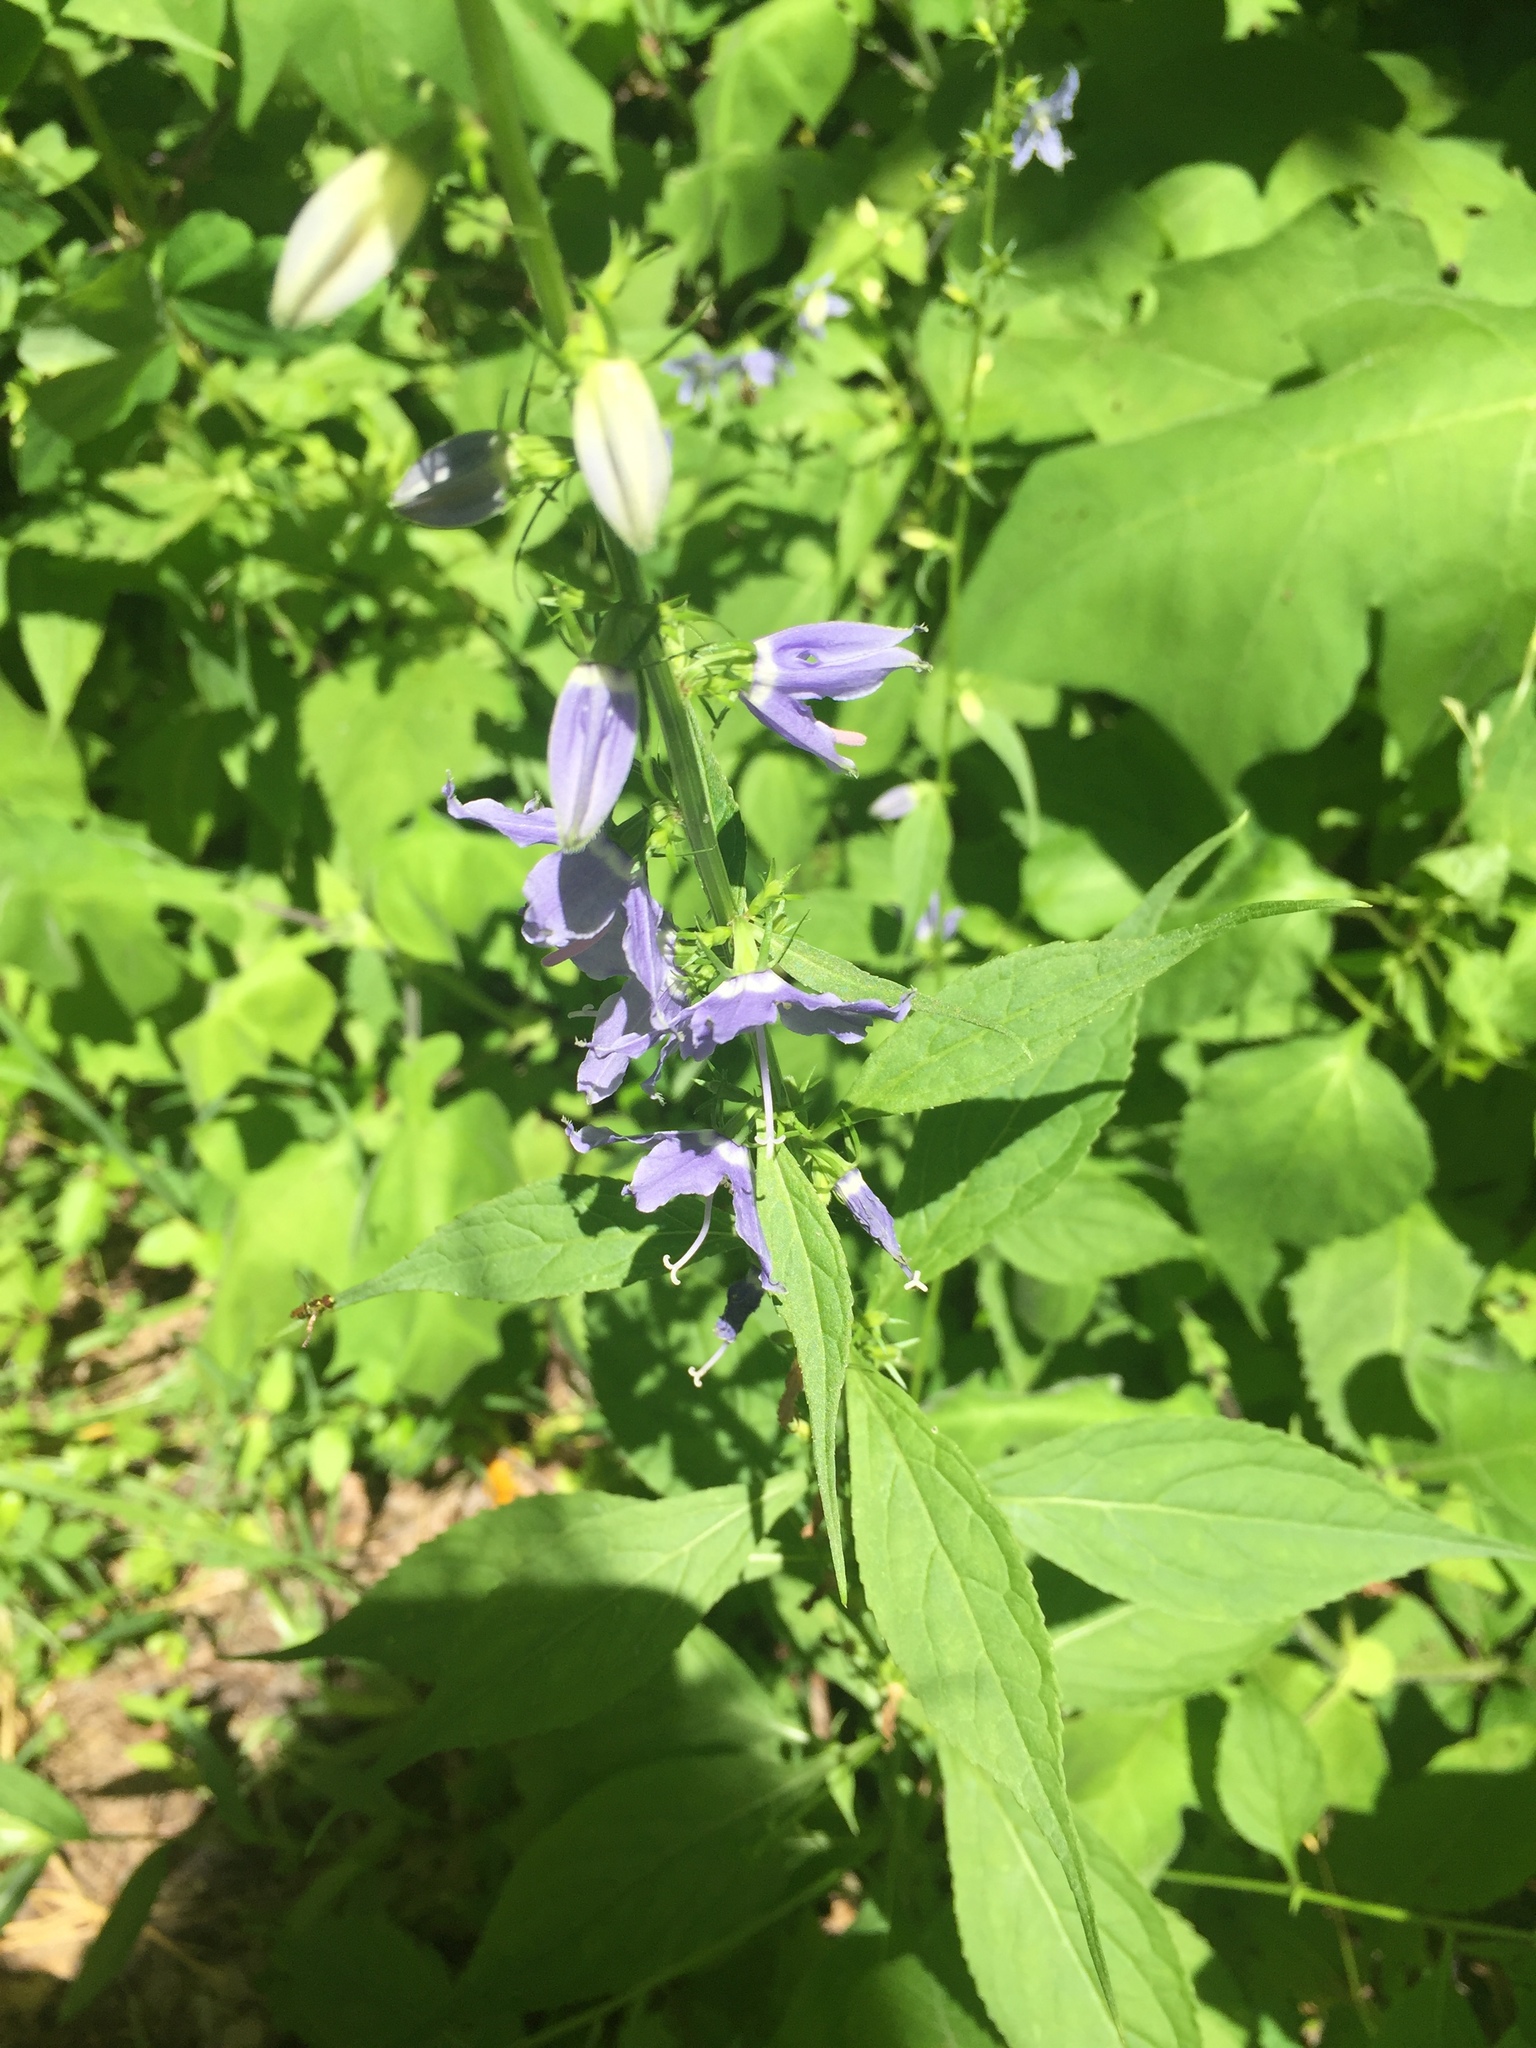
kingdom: Plantae
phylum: Tracheophyta
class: Magnoliopsida
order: Asterales
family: Campanulaceae
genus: Campanulastrum
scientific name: Campanulastrum americanum
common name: American bellflower
